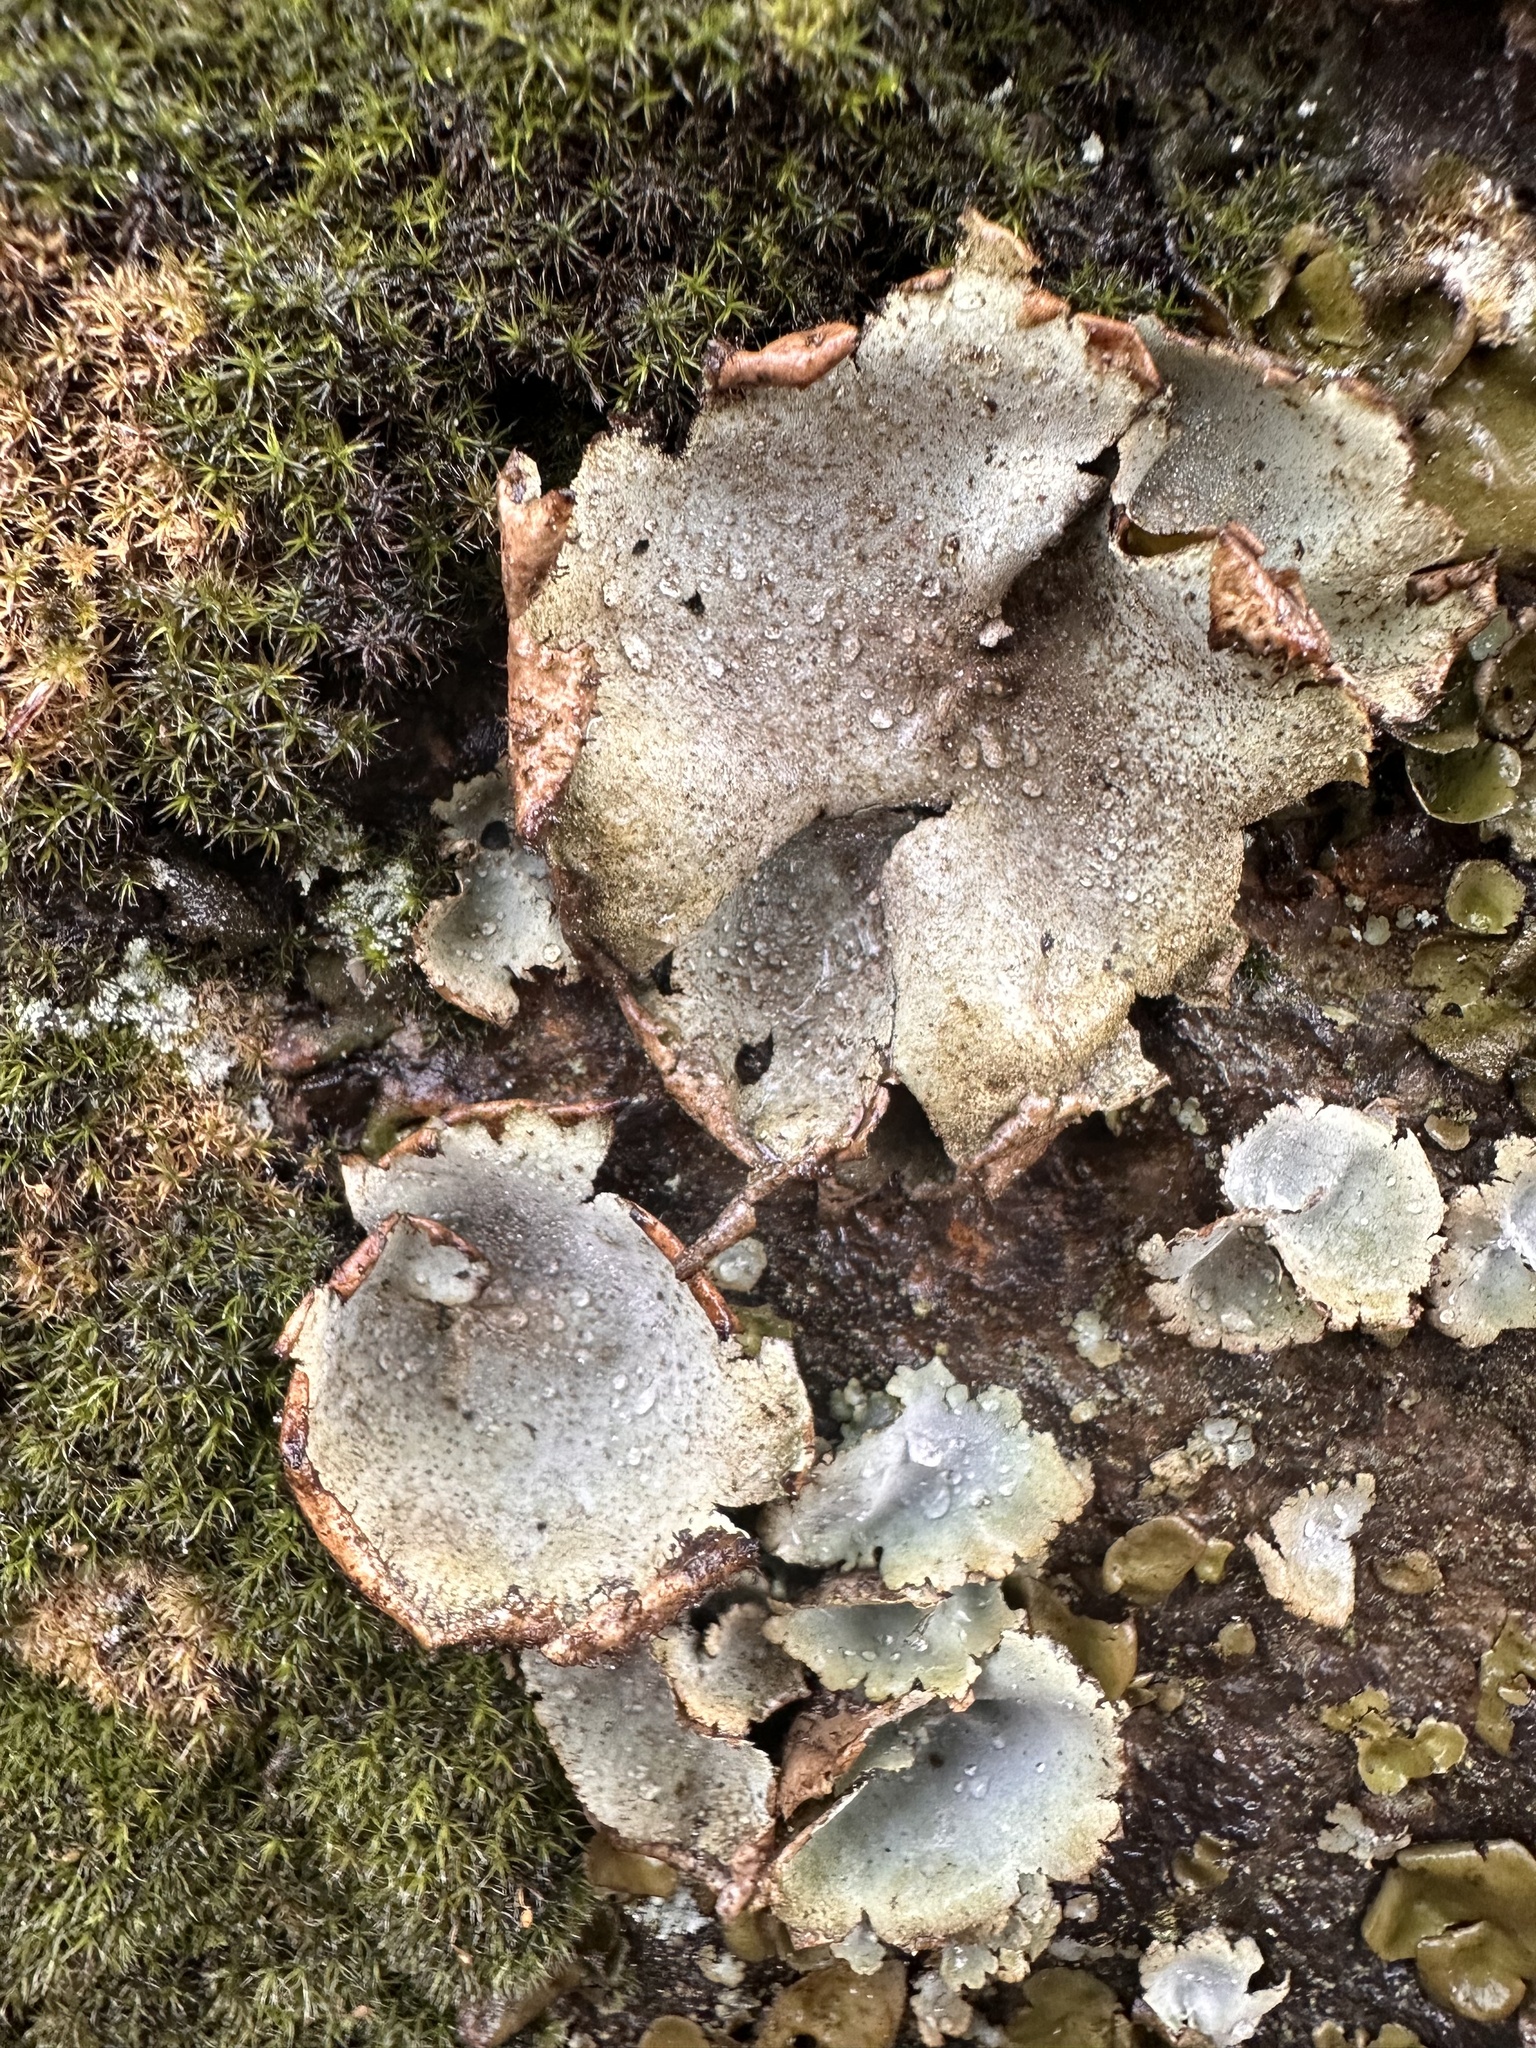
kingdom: Fungi
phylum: Ascomycota
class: Lecanoromycetes
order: Umbilicariales
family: Umbilicariaceae
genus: Umbilicaria
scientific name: Umbilicaria hirsuta
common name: Granulating rocktripe lichen
